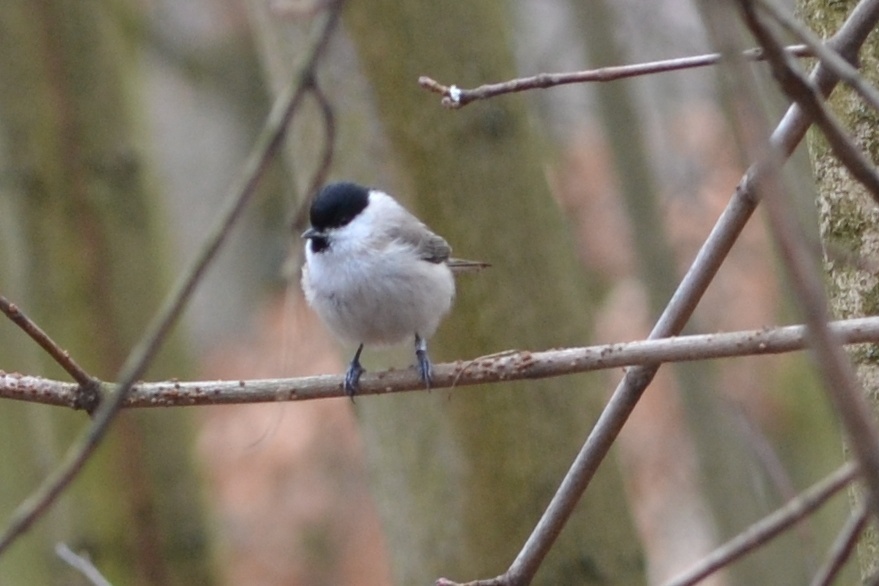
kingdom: Animalia
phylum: Chordata
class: Aves
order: Passeriformes
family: Paridae
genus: Poecile
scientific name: Poecile palustris
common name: Marsh tit
